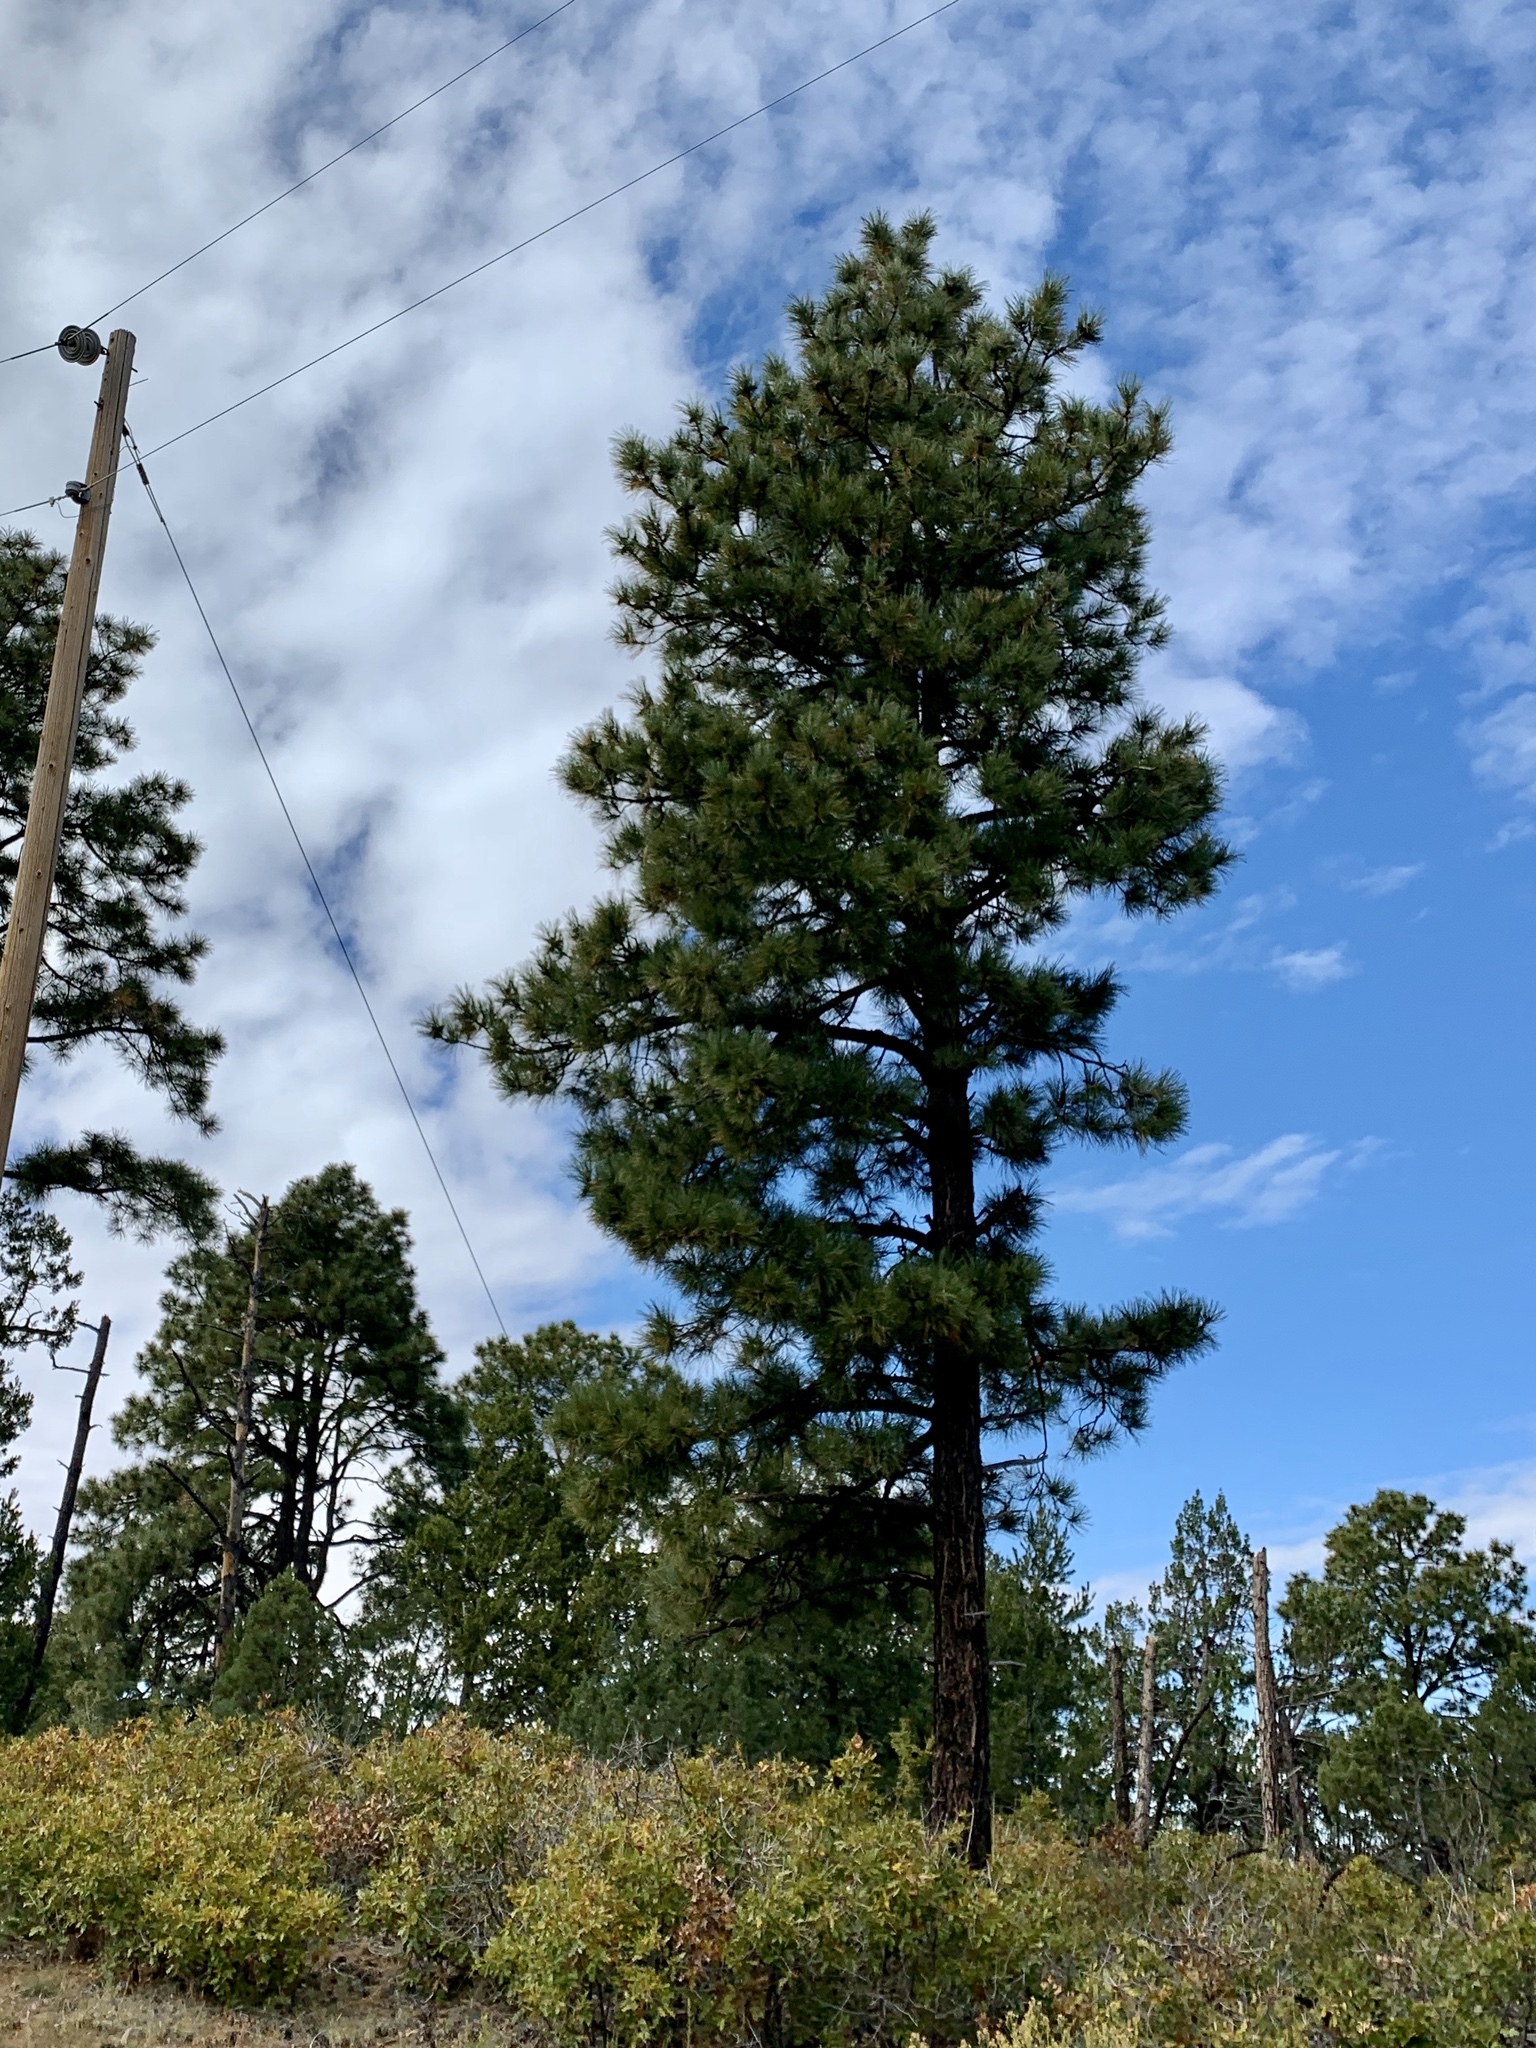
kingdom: Plantae
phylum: Tracheophyta
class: Pinopsida
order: Pinales
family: Pinaceae
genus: Pinus
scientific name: Pinus ponderosa
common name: Western yellow-pine
